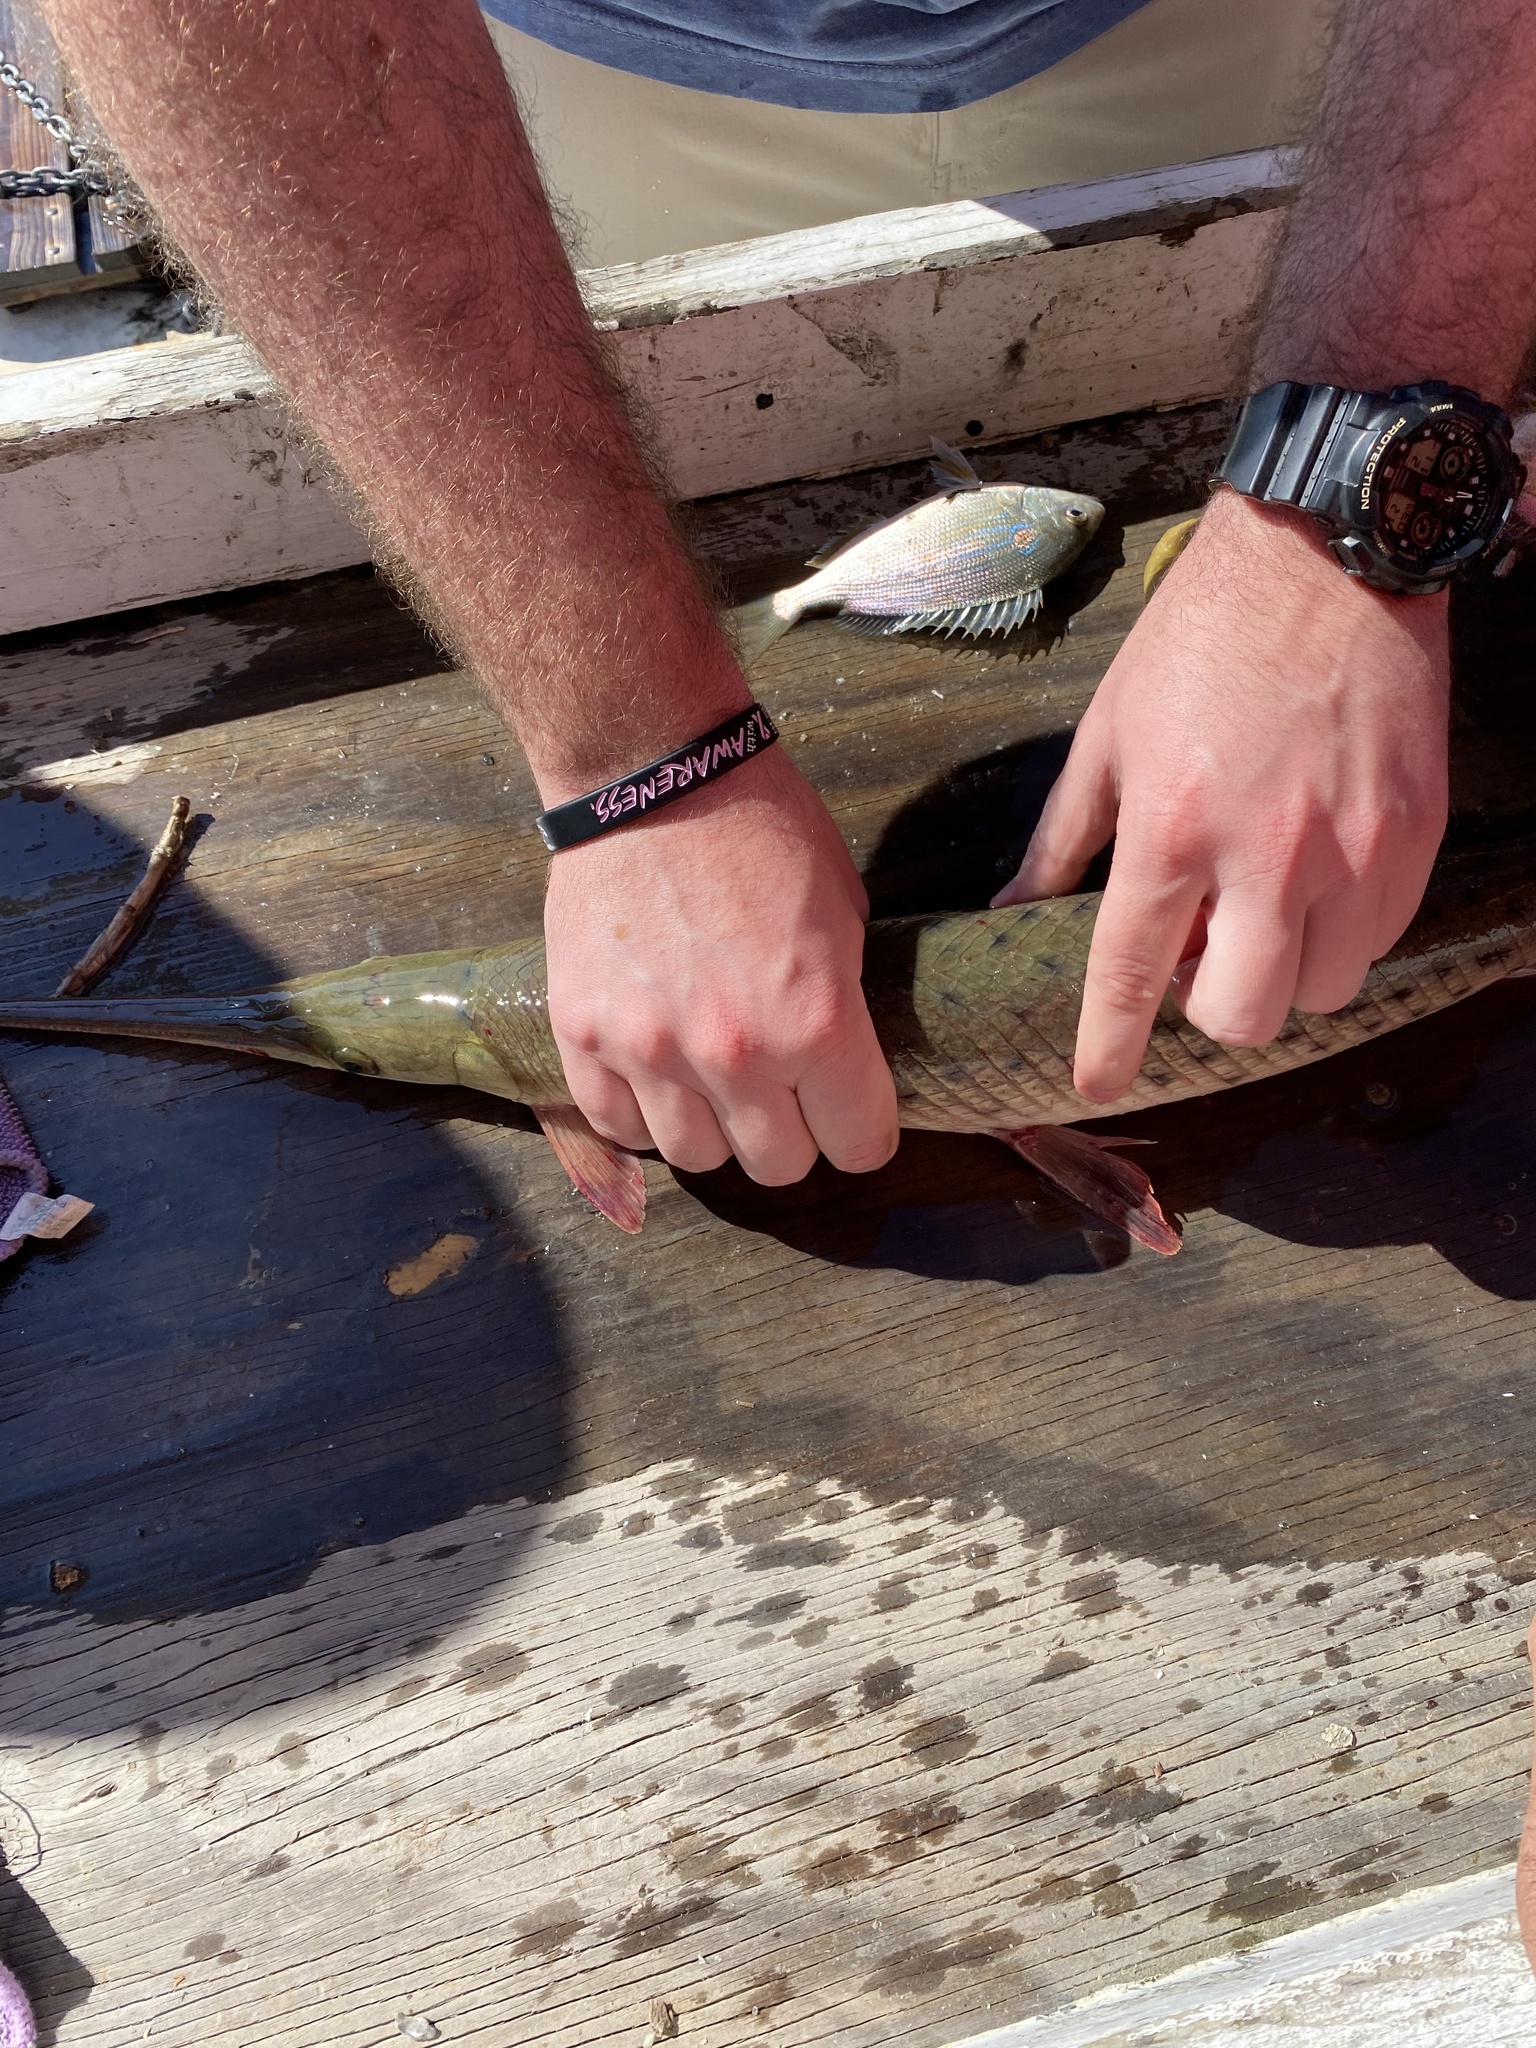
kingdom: Animalia
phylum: Chordata
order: Lepisosteiformes
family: Lepisosteidae
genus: Lepisosteus
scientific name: Lepisosteus osseus
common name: Longnose gar
